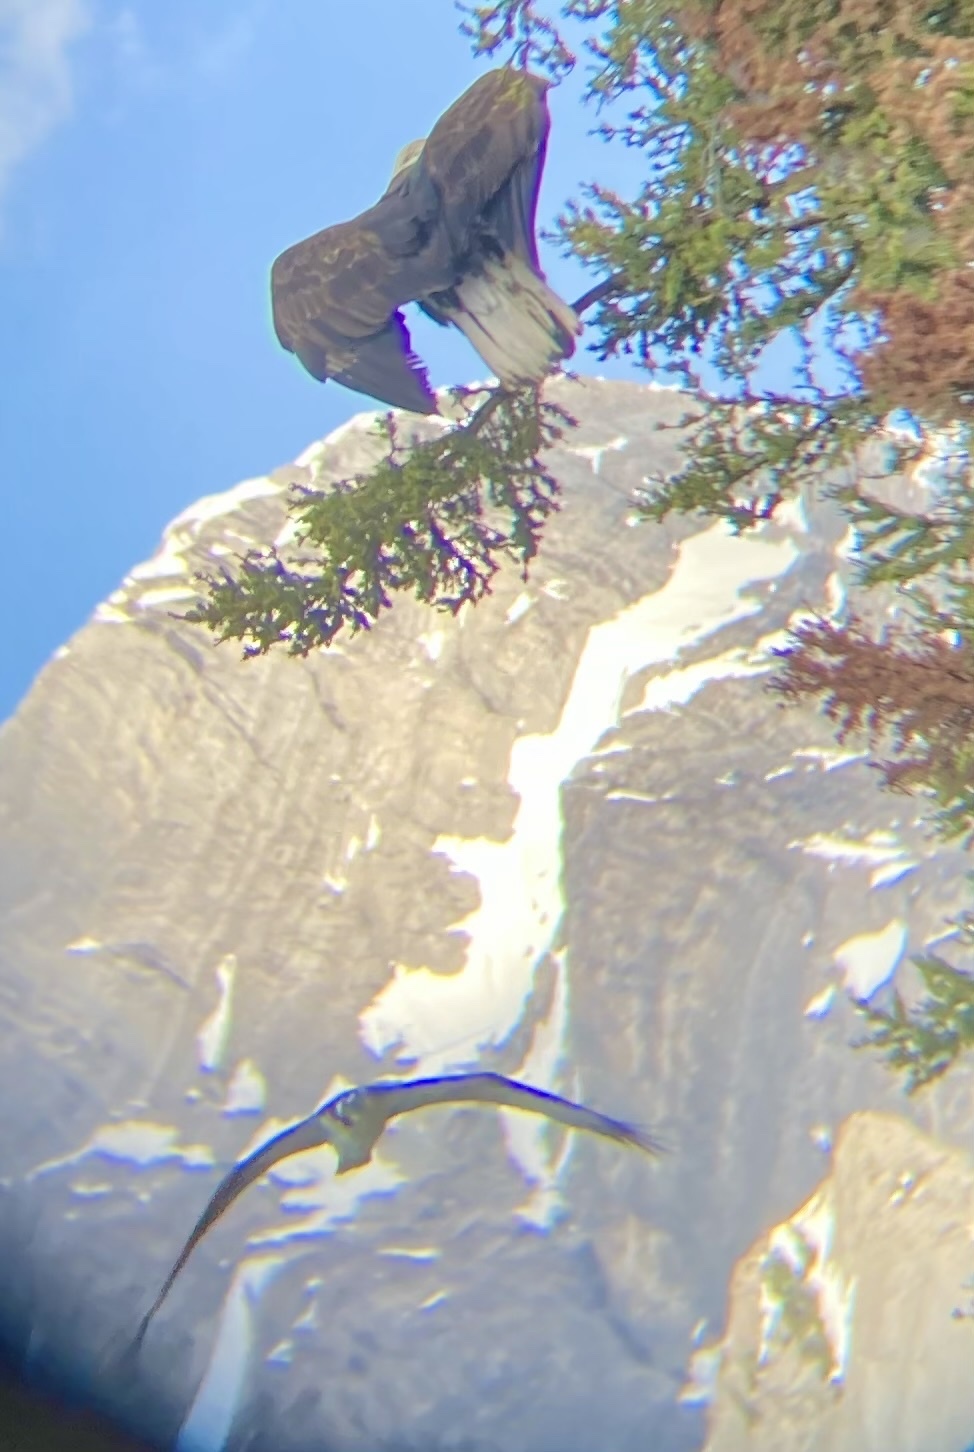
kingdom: Animalia
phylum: Chordata
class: Aves
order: Accipitriformes
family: Pandionidae
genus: Pandion
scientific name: Pandion haliaetus
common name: Osprey
